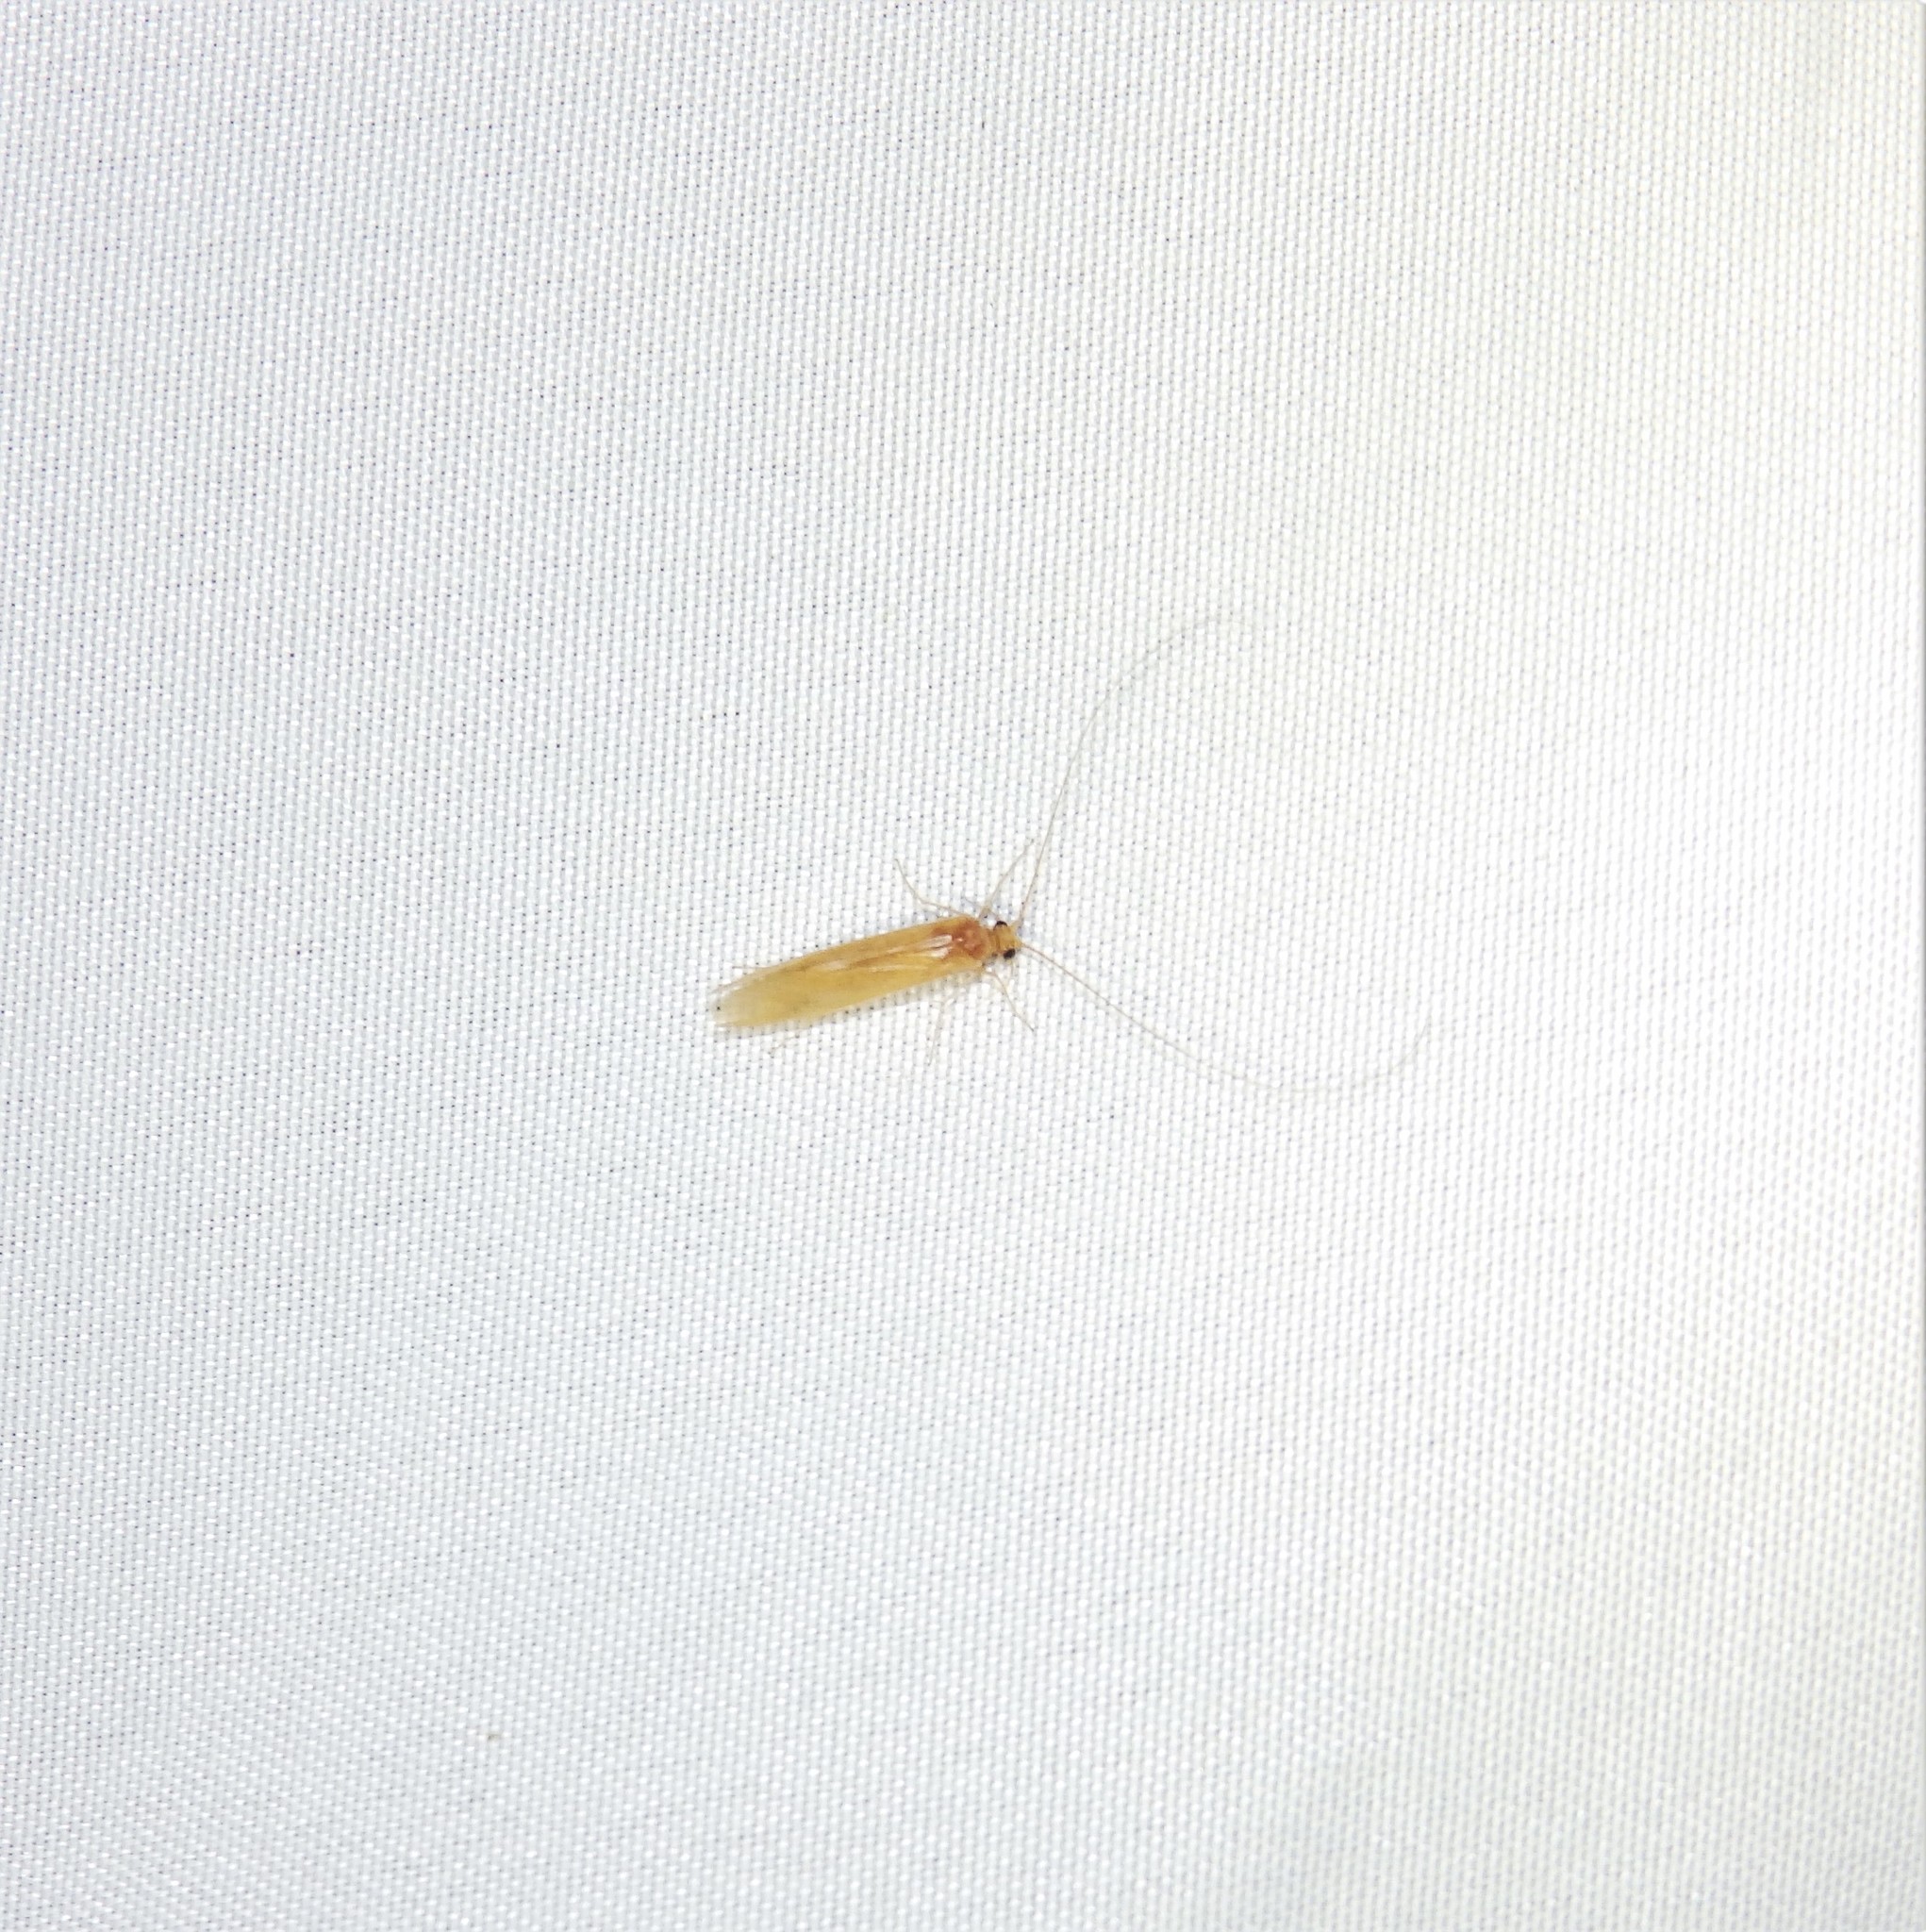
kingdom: Animalia
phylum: Arthropoda
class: Insecta
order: Trichoptera
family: Hydropsychidae
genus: Potamyia
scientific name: Potamyia flava
